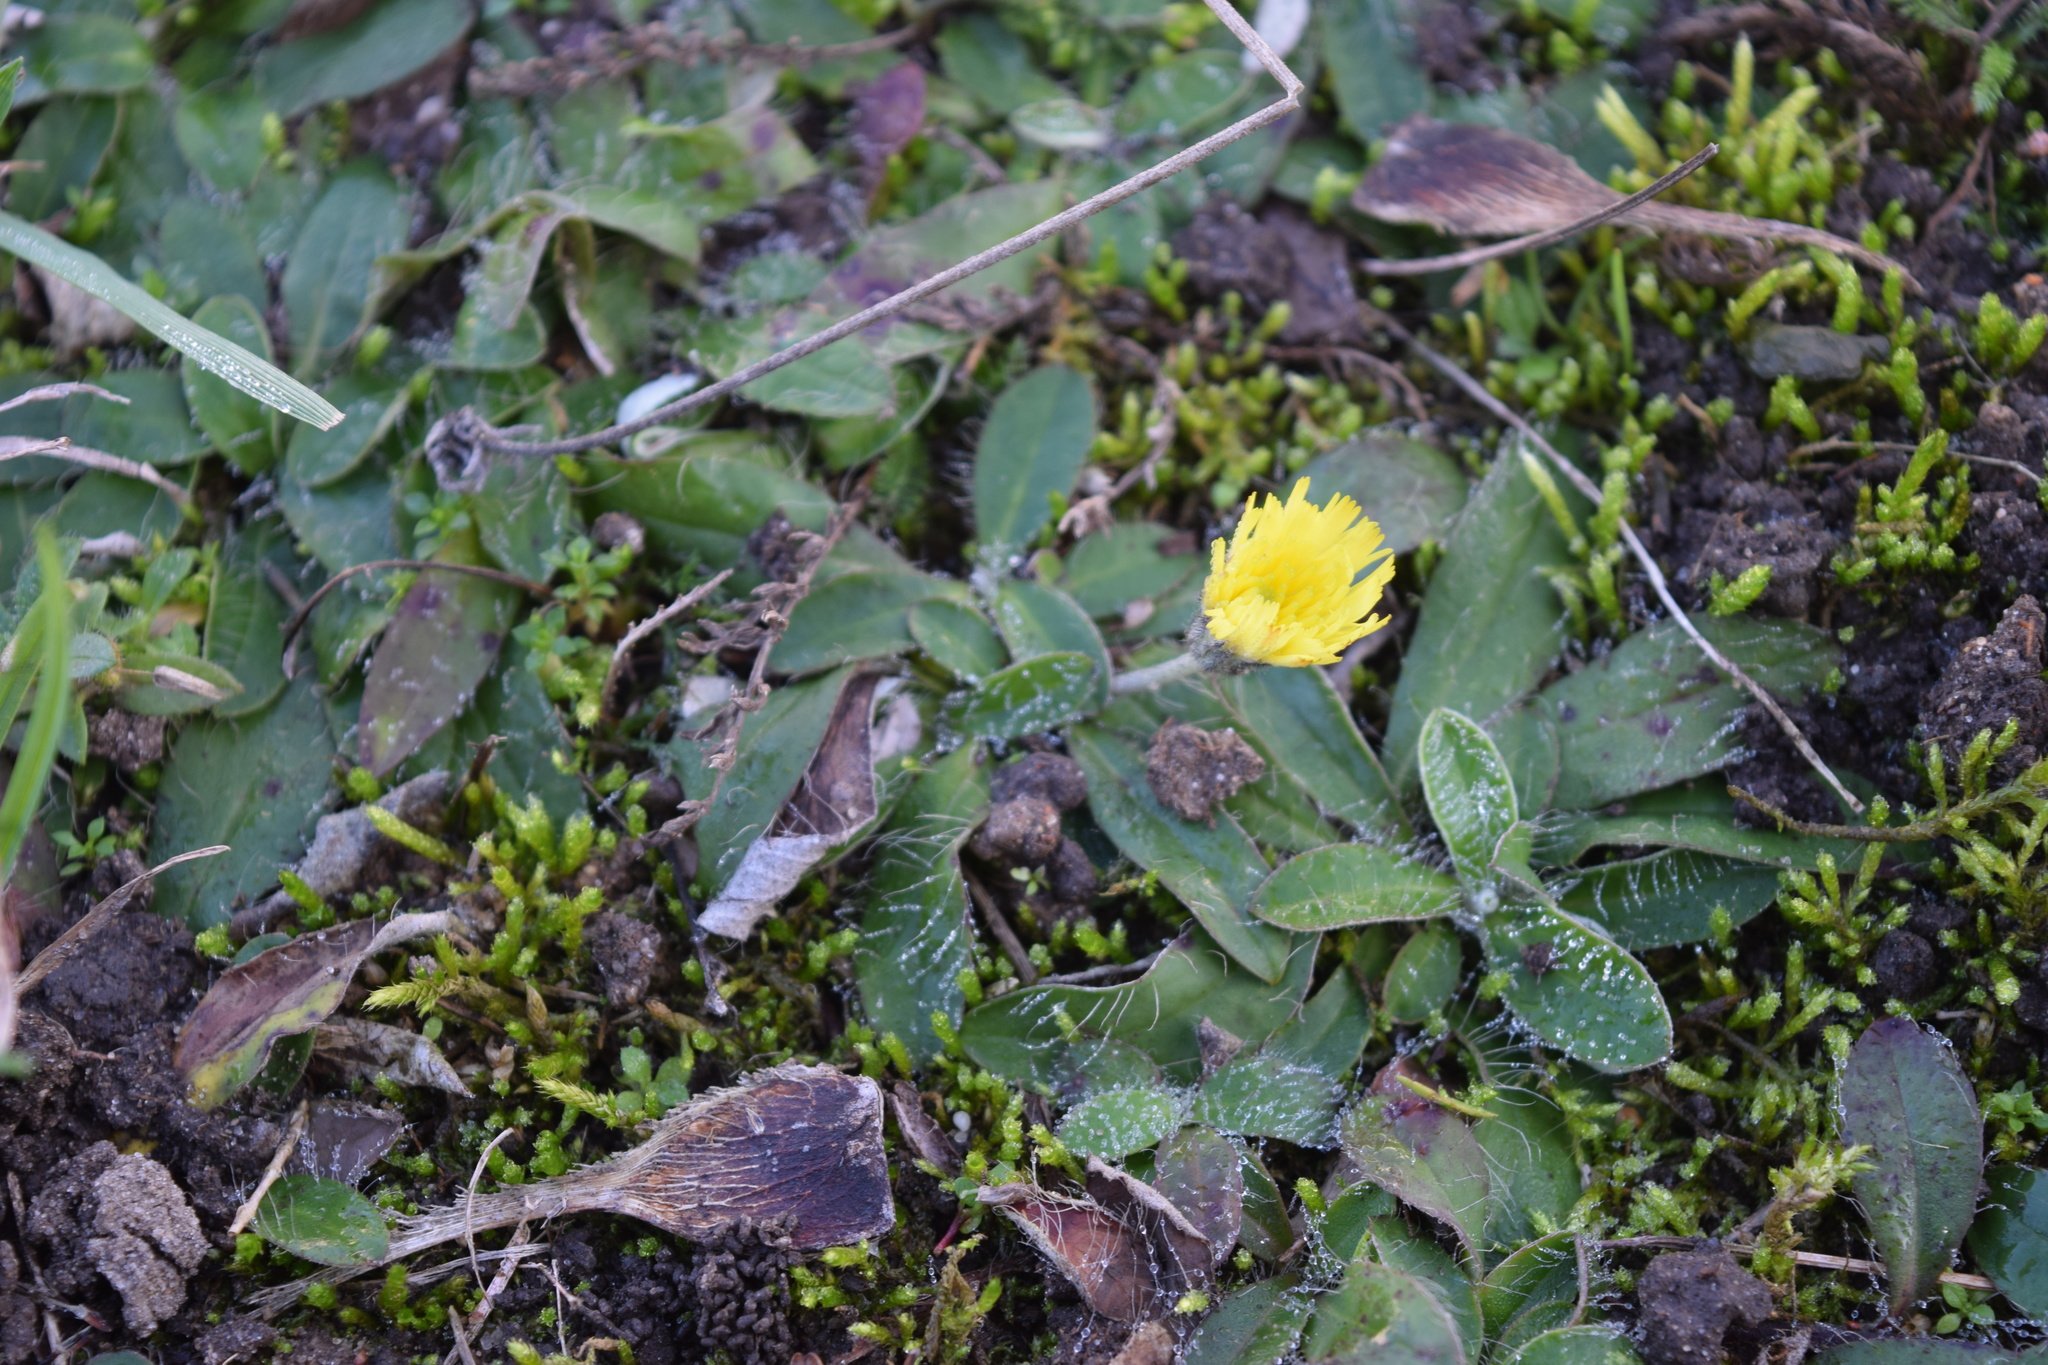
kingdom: Plantae
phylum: Tracheophyta
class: Magnoliopsida
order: Asterales
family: Asteraceae
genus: Pilosella
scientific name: Pilosella officinarum
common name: Mouse-ear hawkweed
